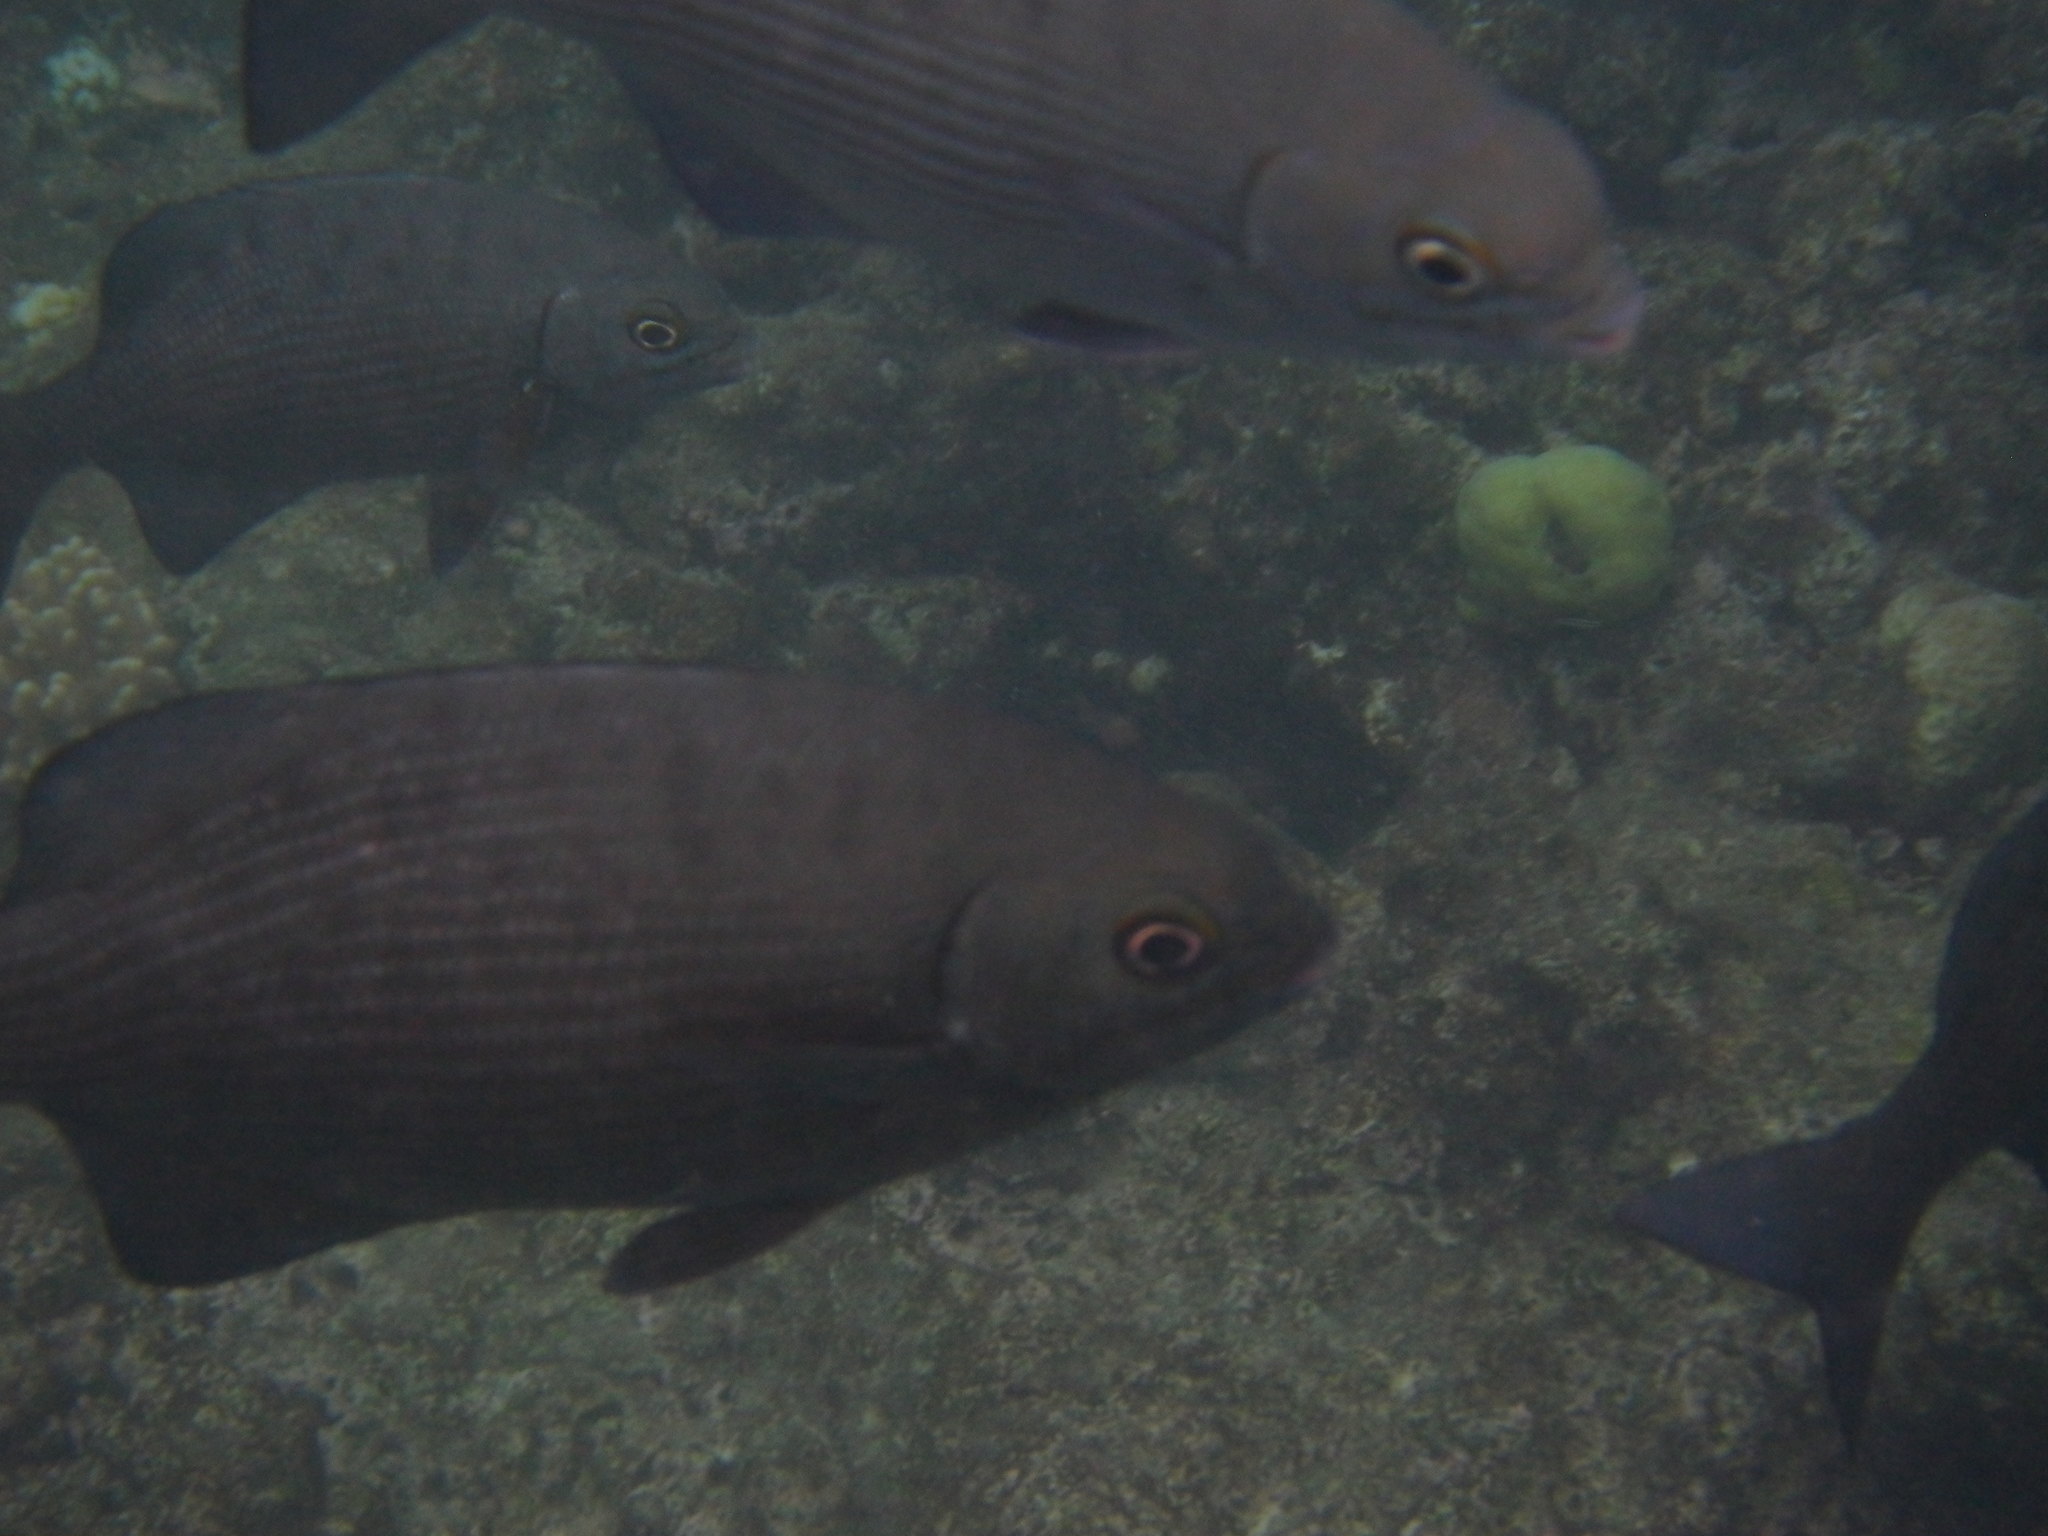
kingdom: Animalia
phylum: Chordata
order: Perciformes
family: Kyphosidae
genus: Kyphosus
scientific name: Kyphosus cinerascens
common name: Topsail drummer
